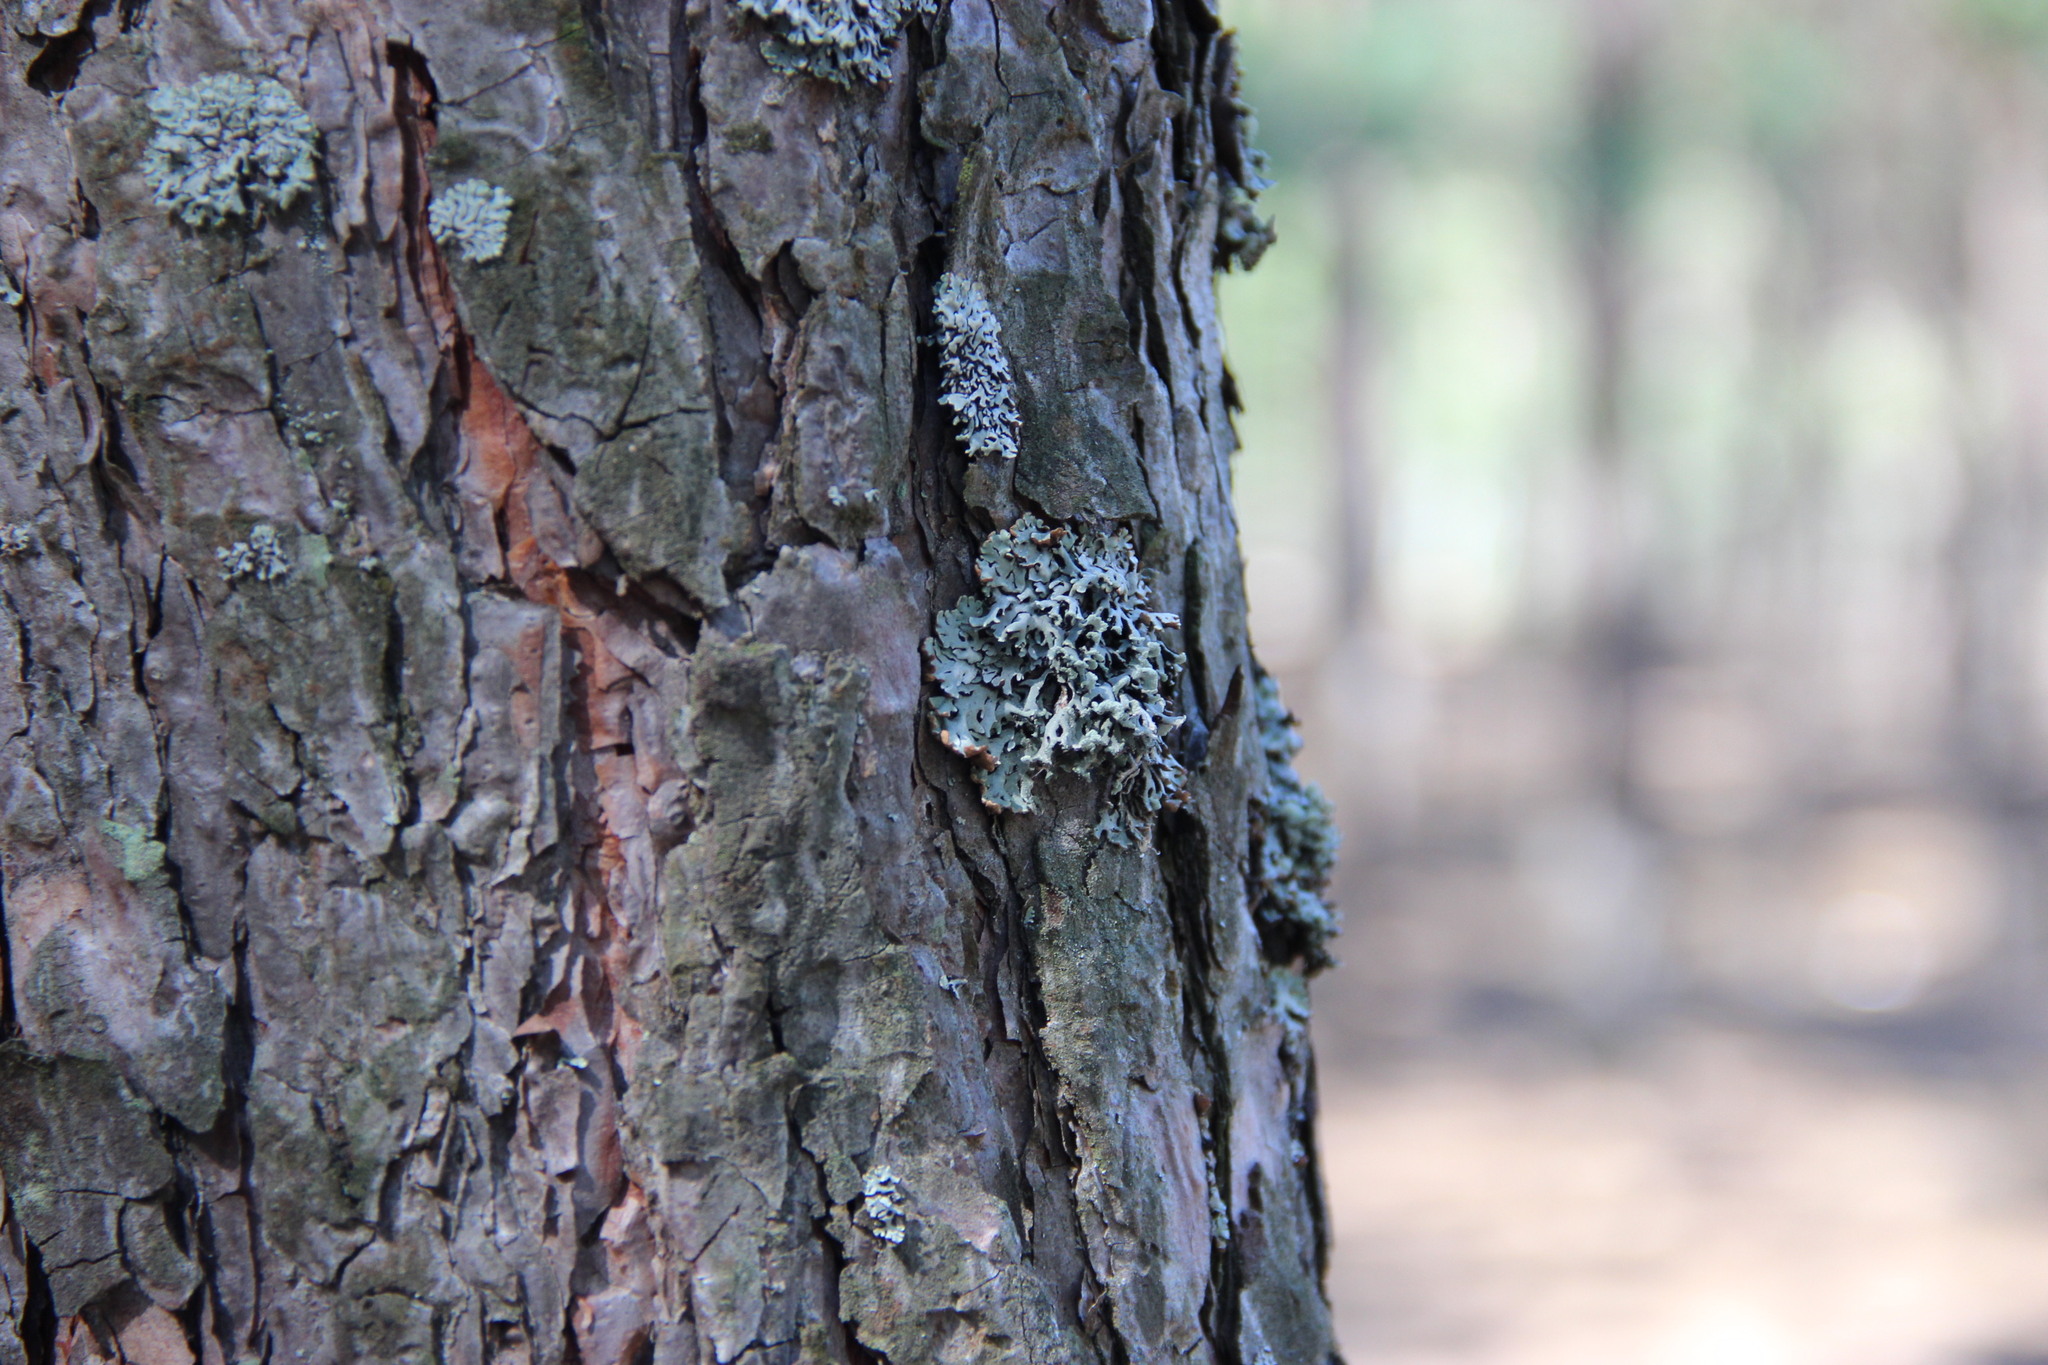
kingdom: Fungi
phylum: Ascomycota
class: Lecanoromycetes
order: Lecanorales
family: Parmeliaceae
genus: Hypogymnia
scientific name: Hypogymnia physodes
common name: Dark crottle
